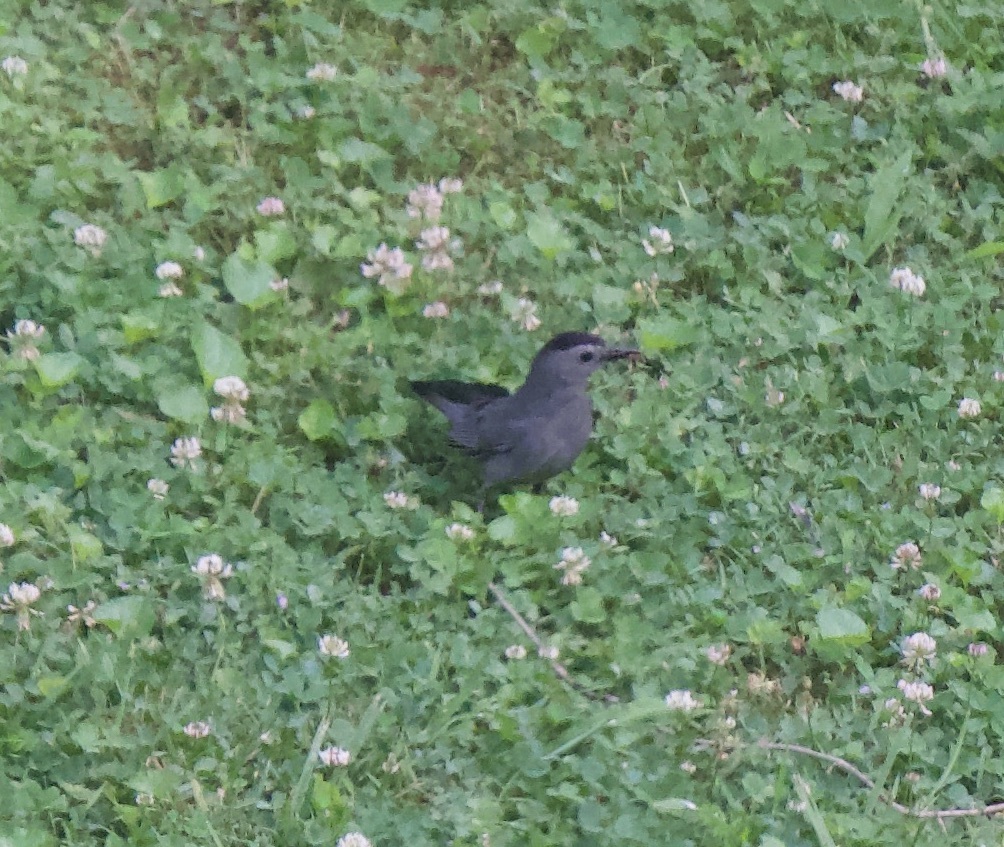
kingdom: Animalia
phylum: Chordata
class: Aves
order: Passeriformes
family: Mimidae
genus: Dumetella
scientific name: Dumetella carolinensis
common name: Gray catbird
